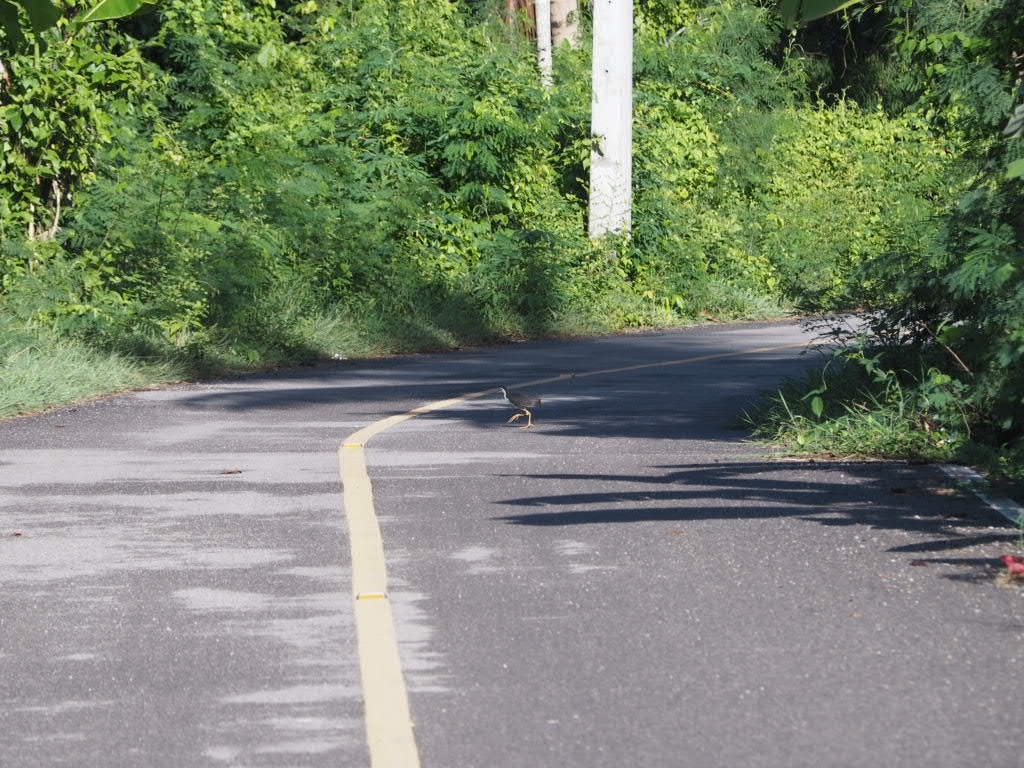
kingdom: Animalia
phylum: Chordata
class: Aves
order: Gruiformes
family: Rallidae
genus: Amaurornis
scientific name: Amaurornis phoenicurus
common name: White-breasted waterhen
